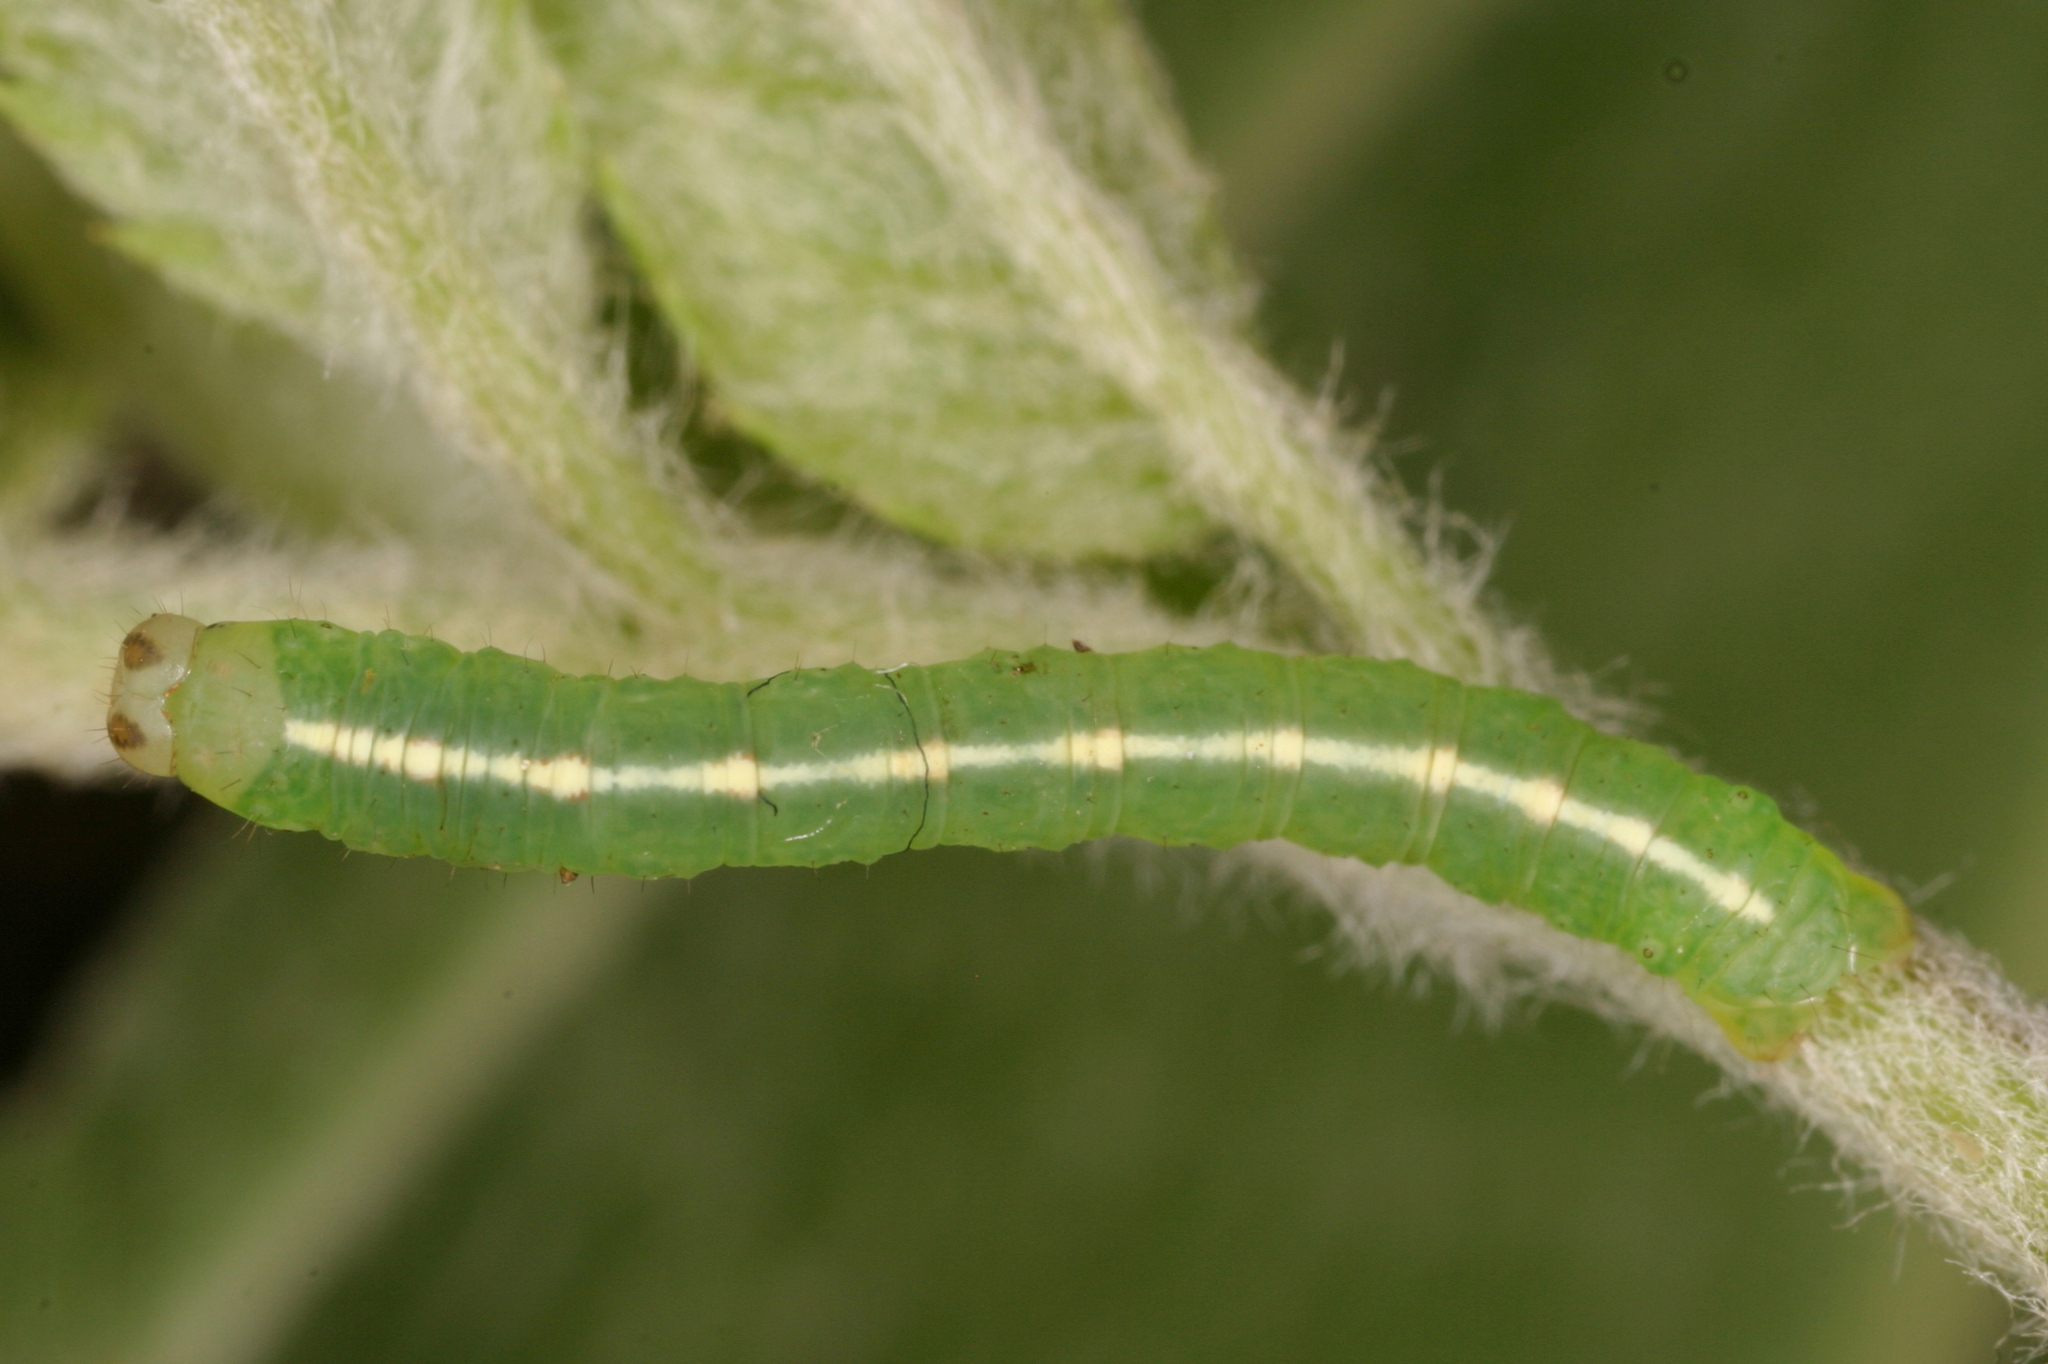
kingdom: Animalia
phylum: Arthropoda
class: Insecta
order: Lepidoptera
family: Geometridae
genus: Lomographa
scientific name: Lomographa temerata
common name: Clouded silver
